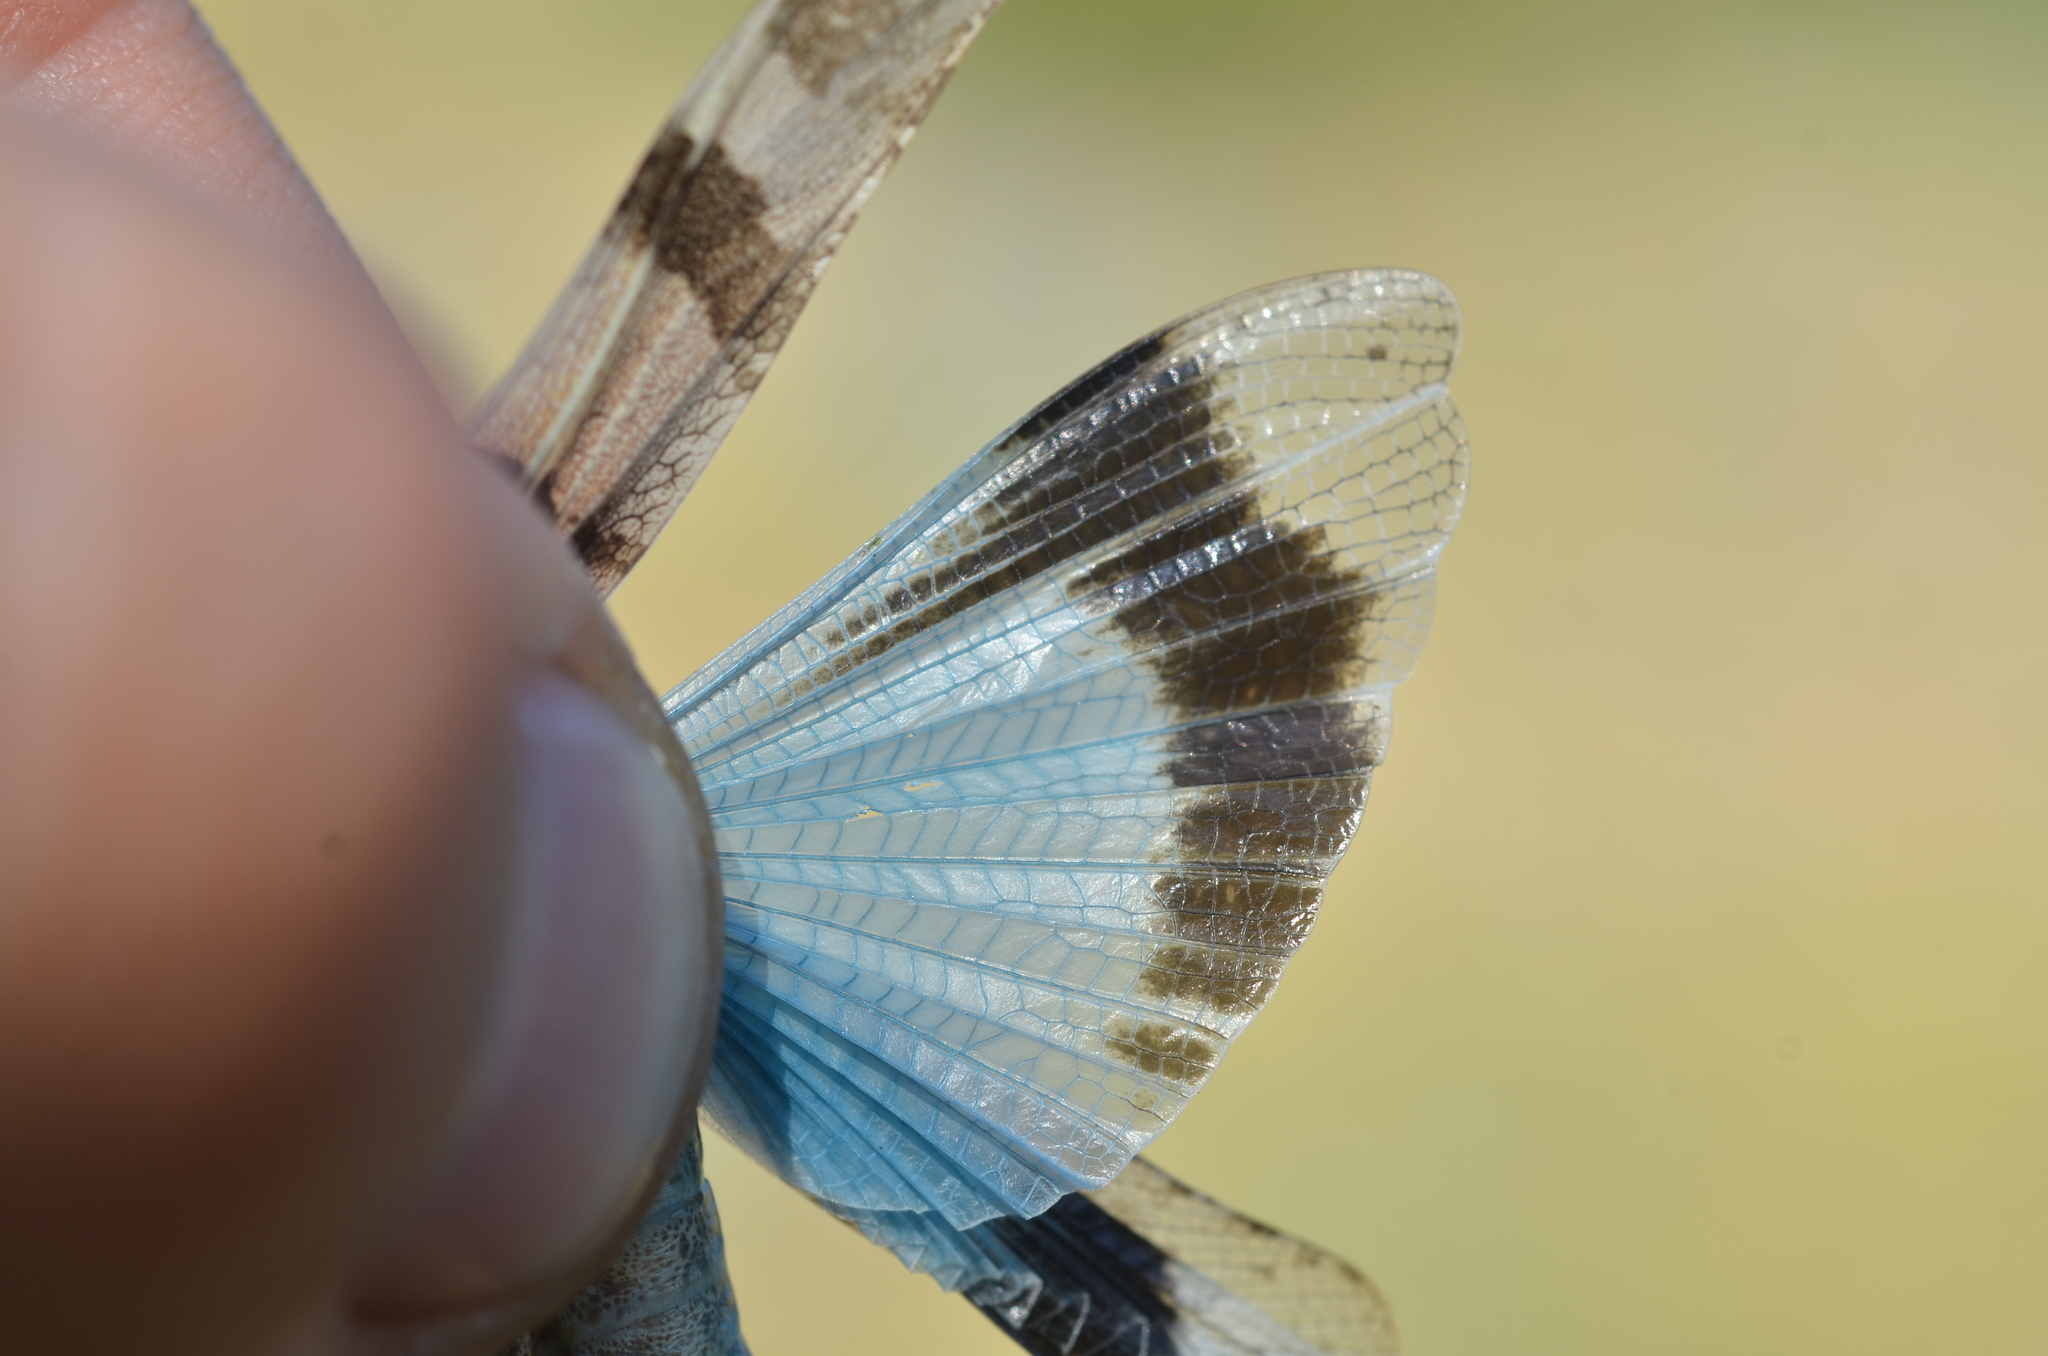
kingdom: Animalia
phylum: Arthropoda
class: Insecta
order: Orthoptera
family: Acrididae
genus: Oedipoda
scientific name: Oedipoda caerulescens
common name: Blue-winged grasshopper
